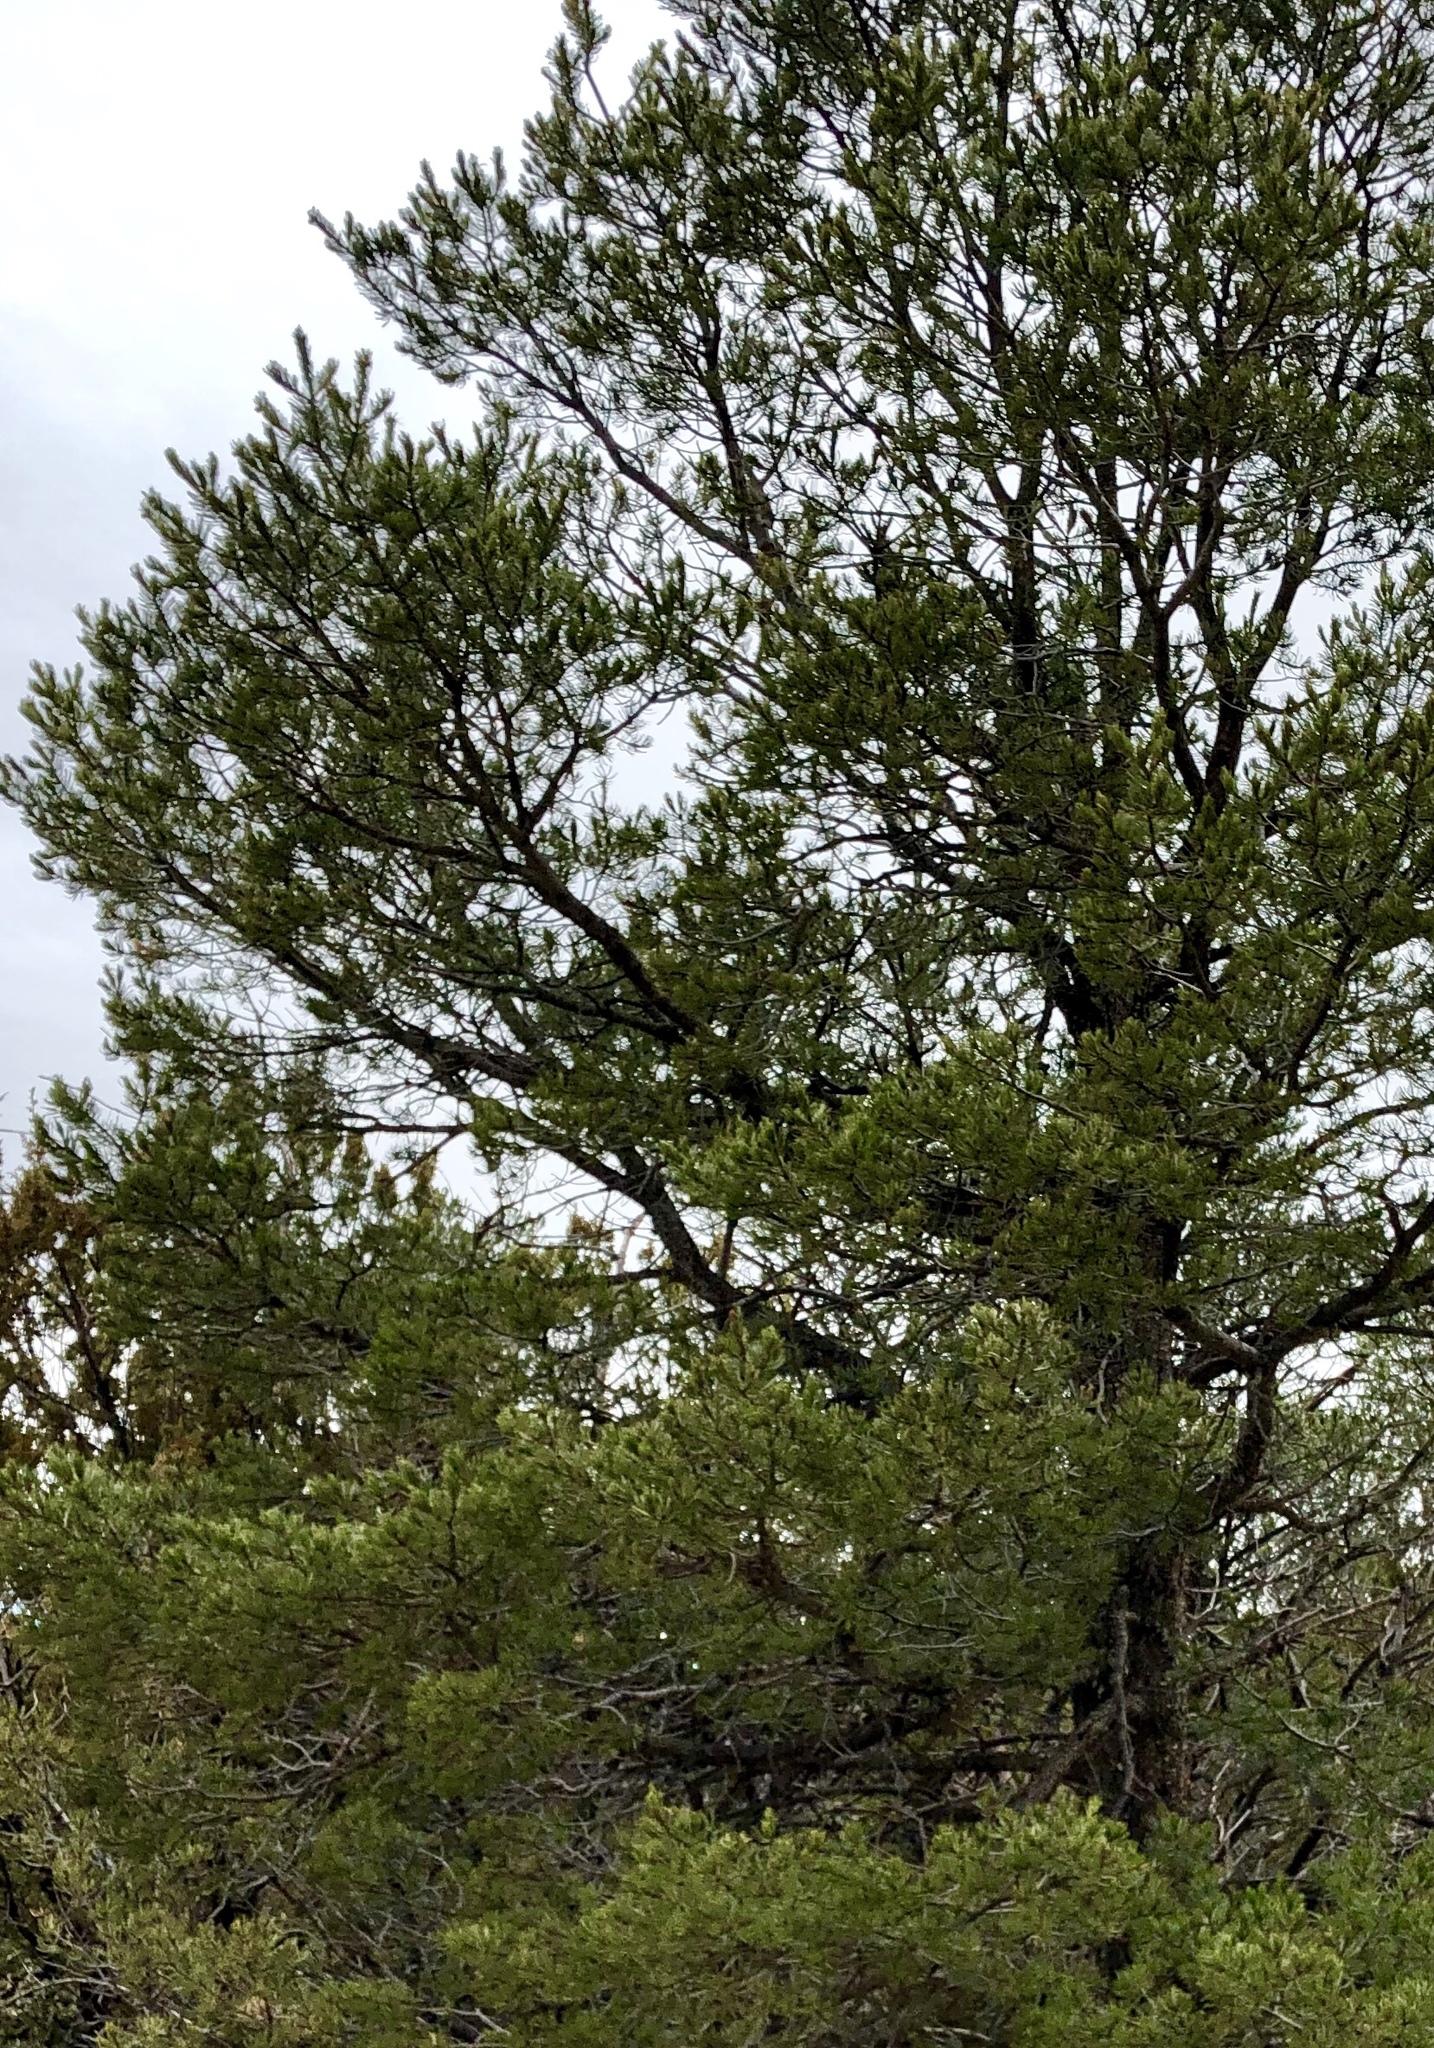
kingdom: Plantae
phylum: Tracheophyta
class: Pinopsida
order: Pinales
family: Pinaceae
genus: Pinus
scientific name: Pinus edulis
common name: Colorado pinyon
